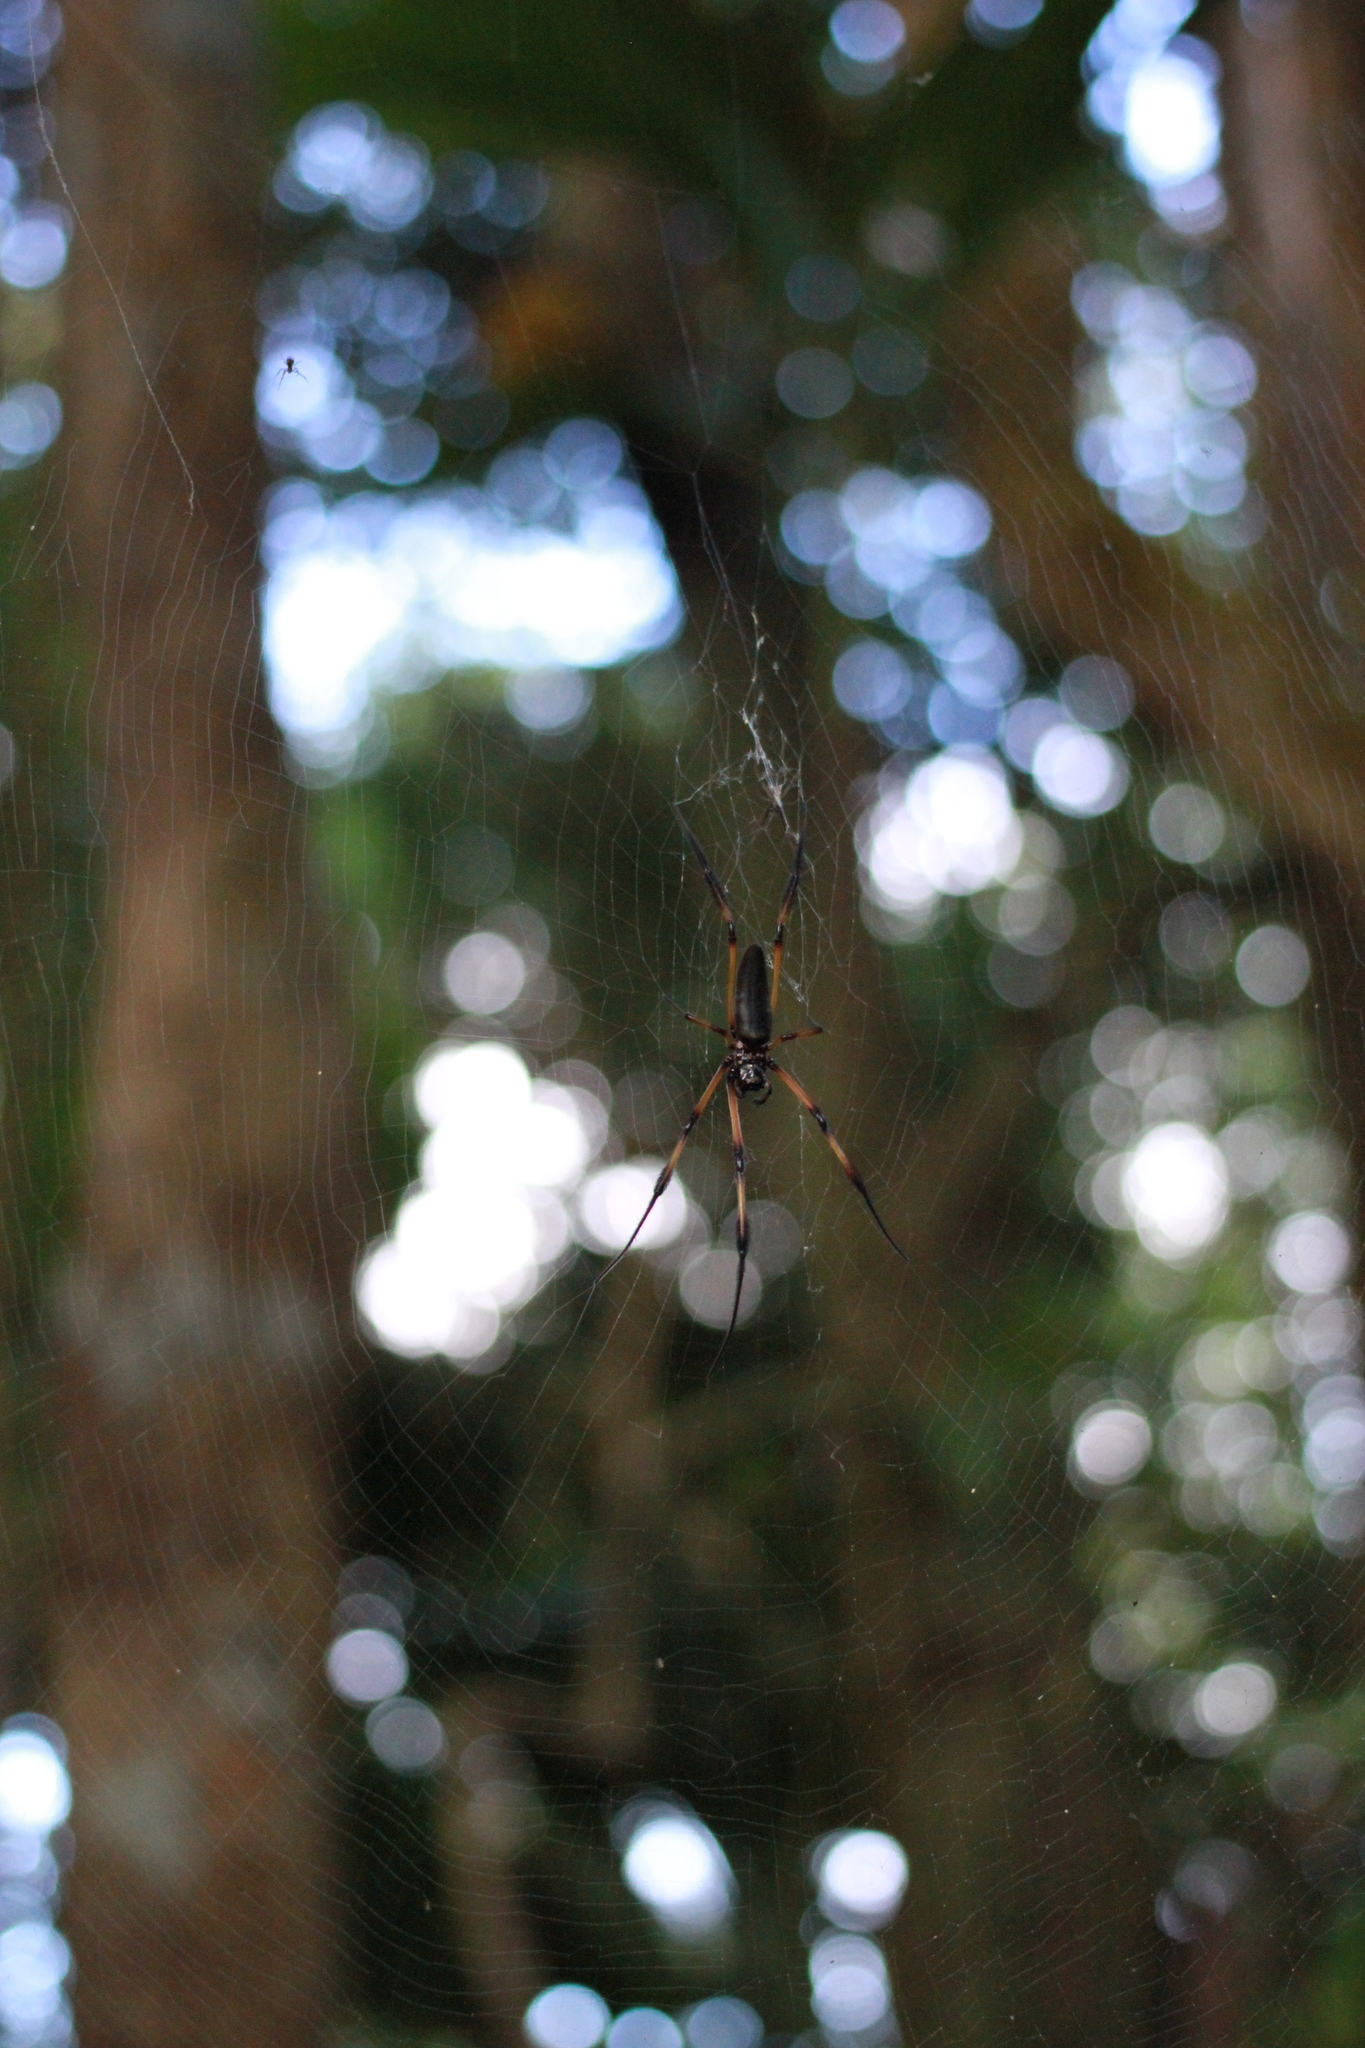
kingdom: Animalia
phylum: Arthropoda
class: Arachnida
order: Araneae
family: Araneidae
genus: Trichonephila
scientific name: Trichonephila inaurata
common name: Red-legged golden orb weaver
